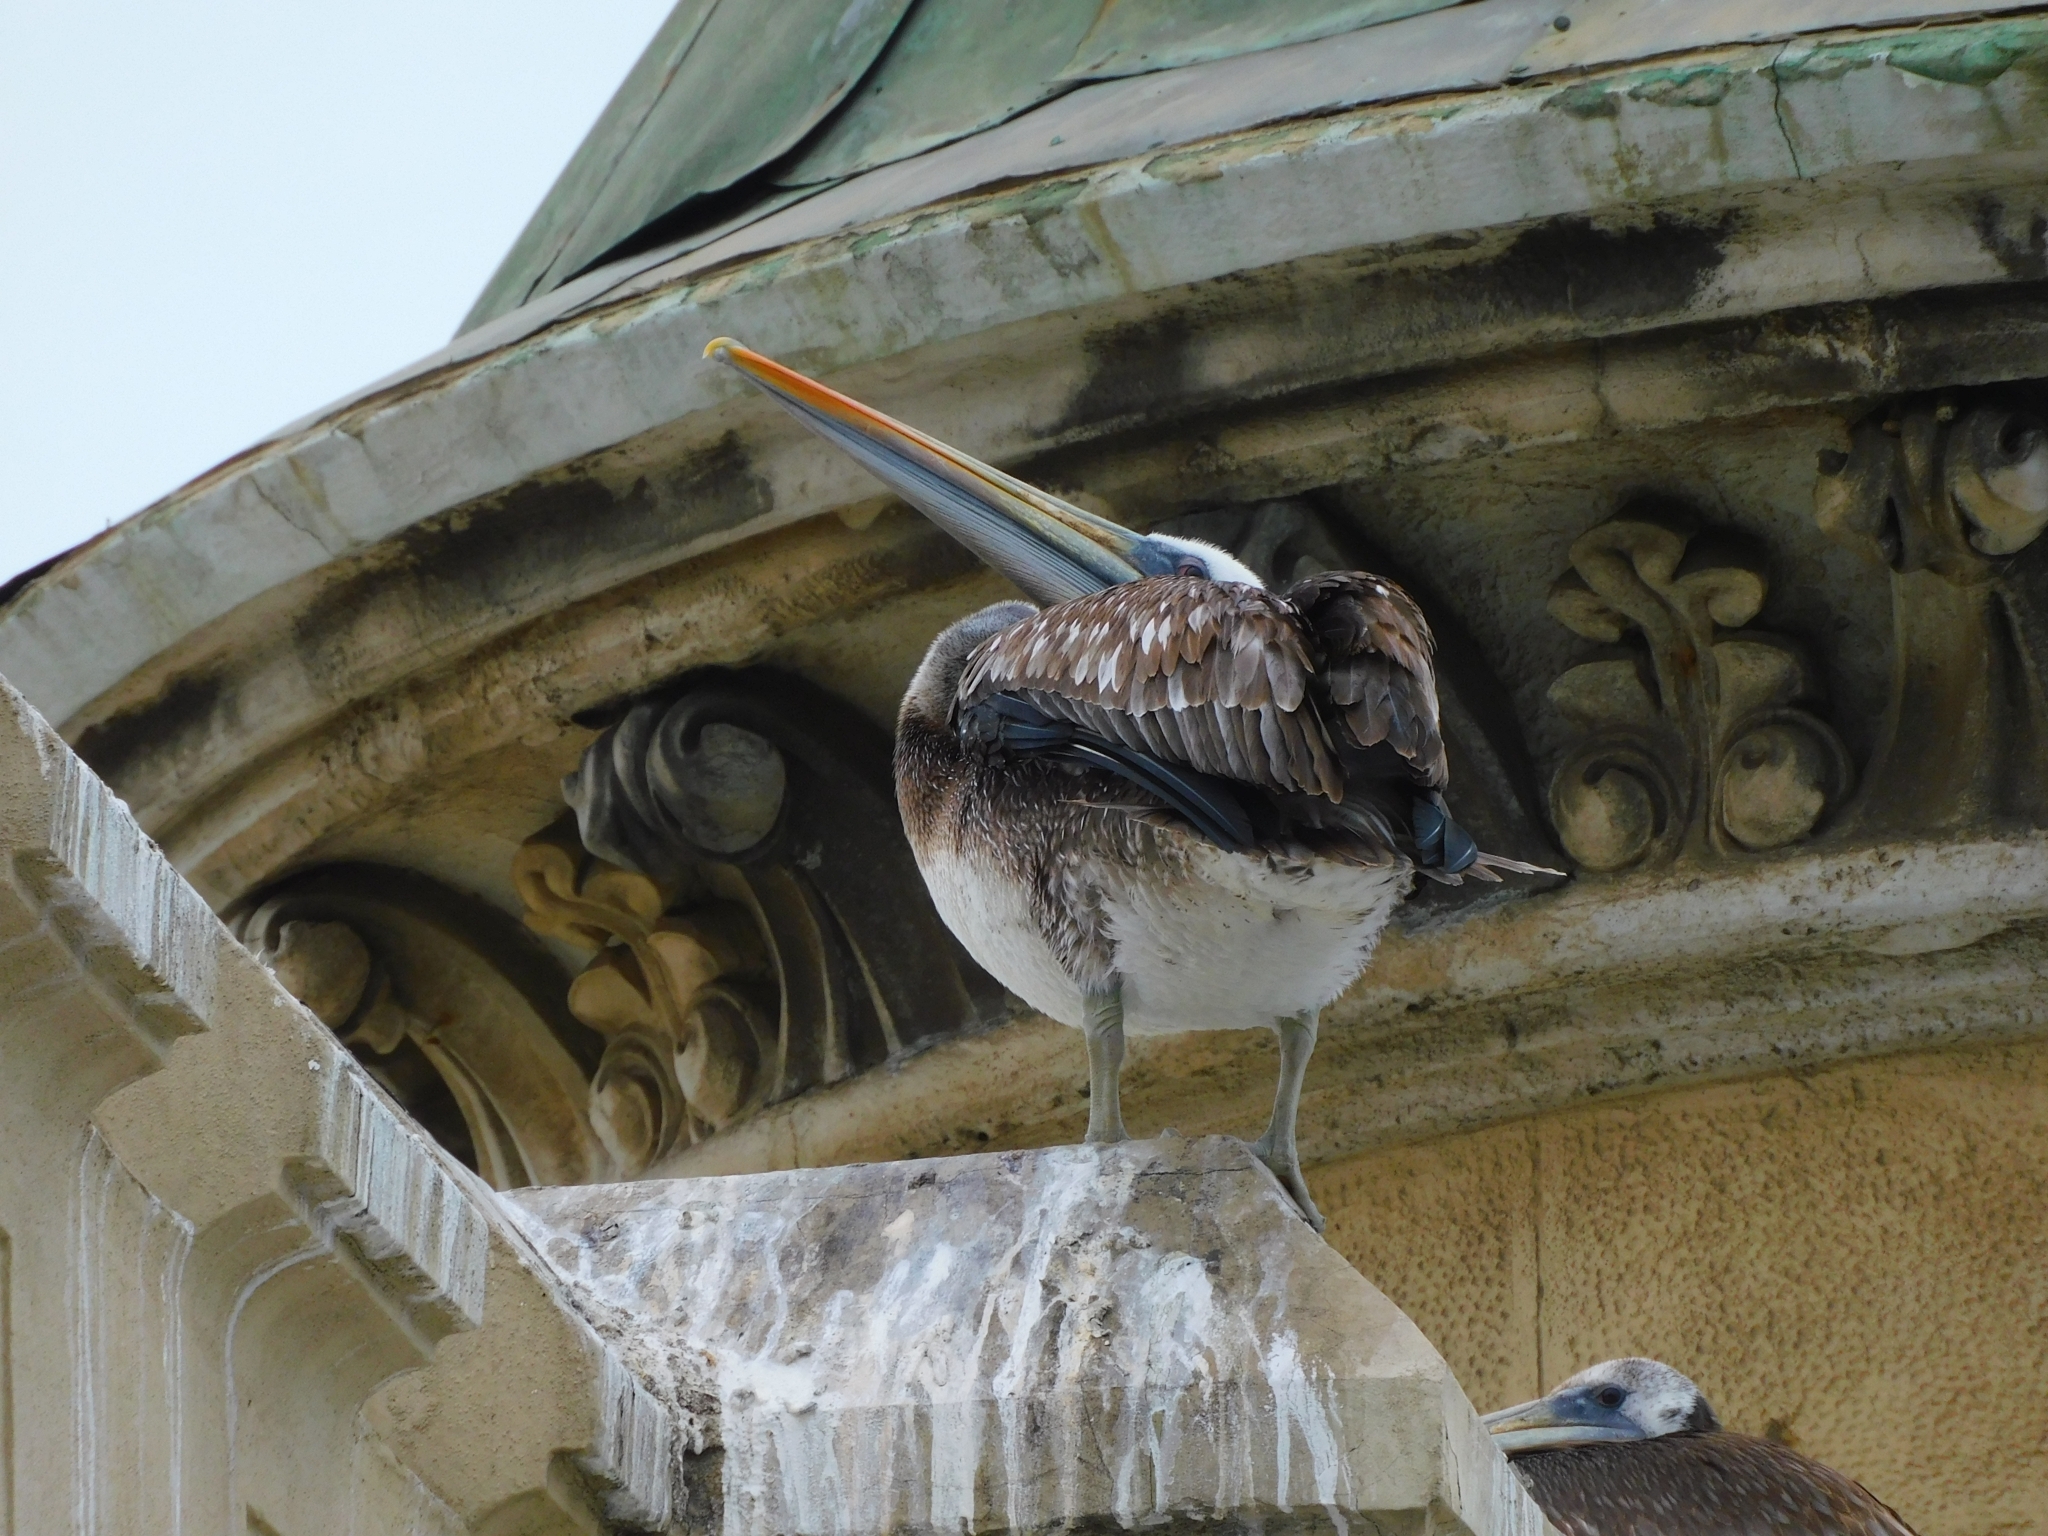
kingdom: Animalia
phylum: Chordata
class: Aves
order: Pelecaniformes
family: Pelecanidae
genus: Pelecanus
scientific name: Pelecanus thagus
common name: Peruvian pelican
